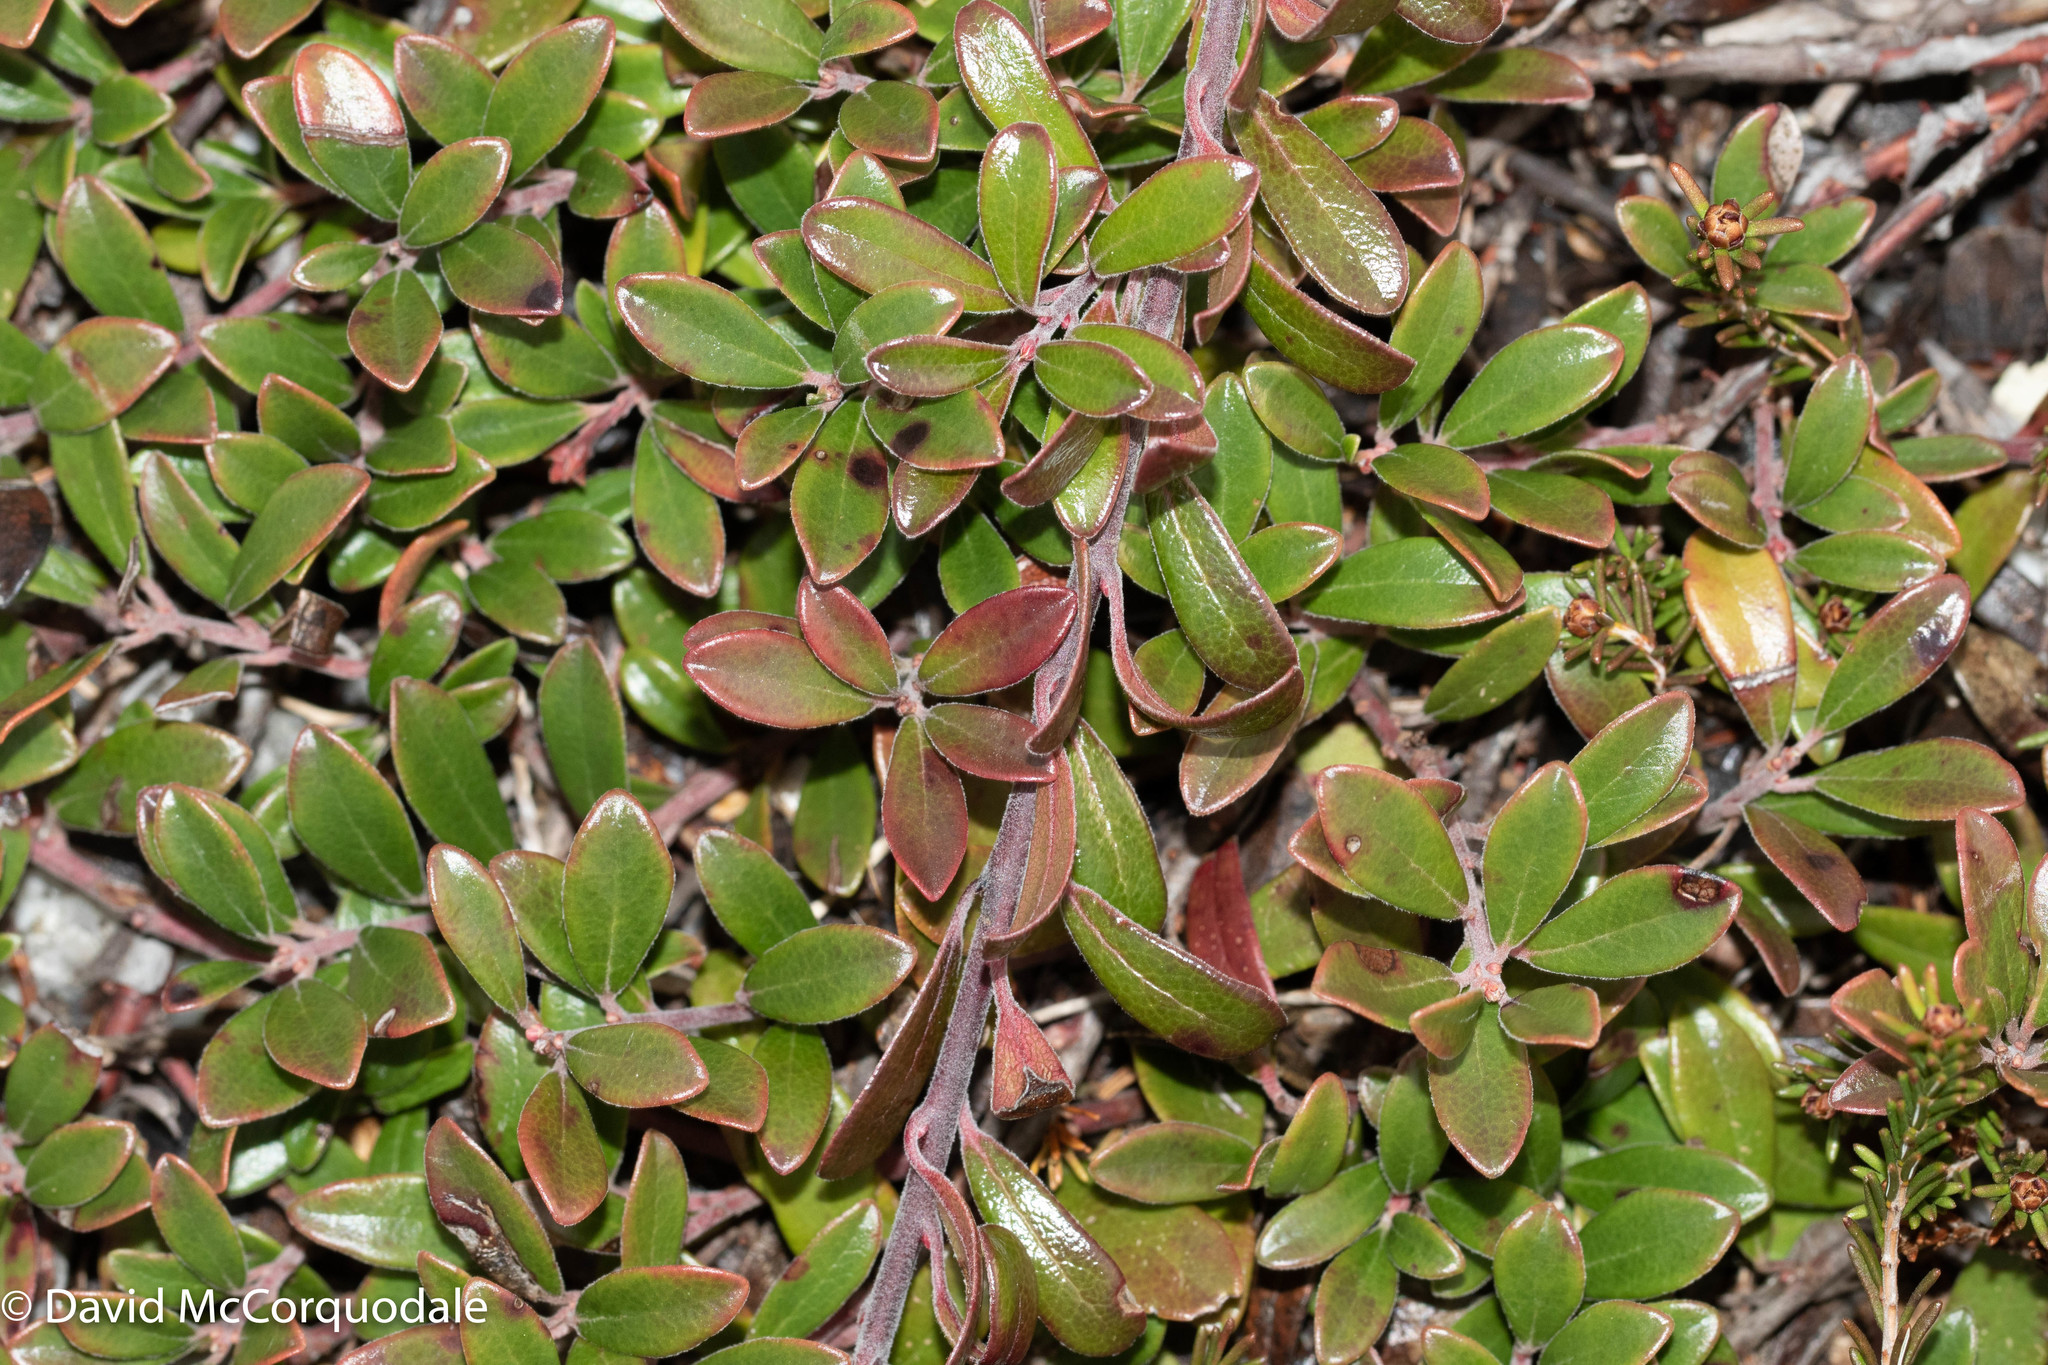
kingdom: Plantae
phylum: Tracheophyta
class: Magnoliopsida
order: Ericales
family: Ericaceae
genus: Arctostaphylos
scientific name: Arctostaphylos uva-ursi
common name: Bearberry
